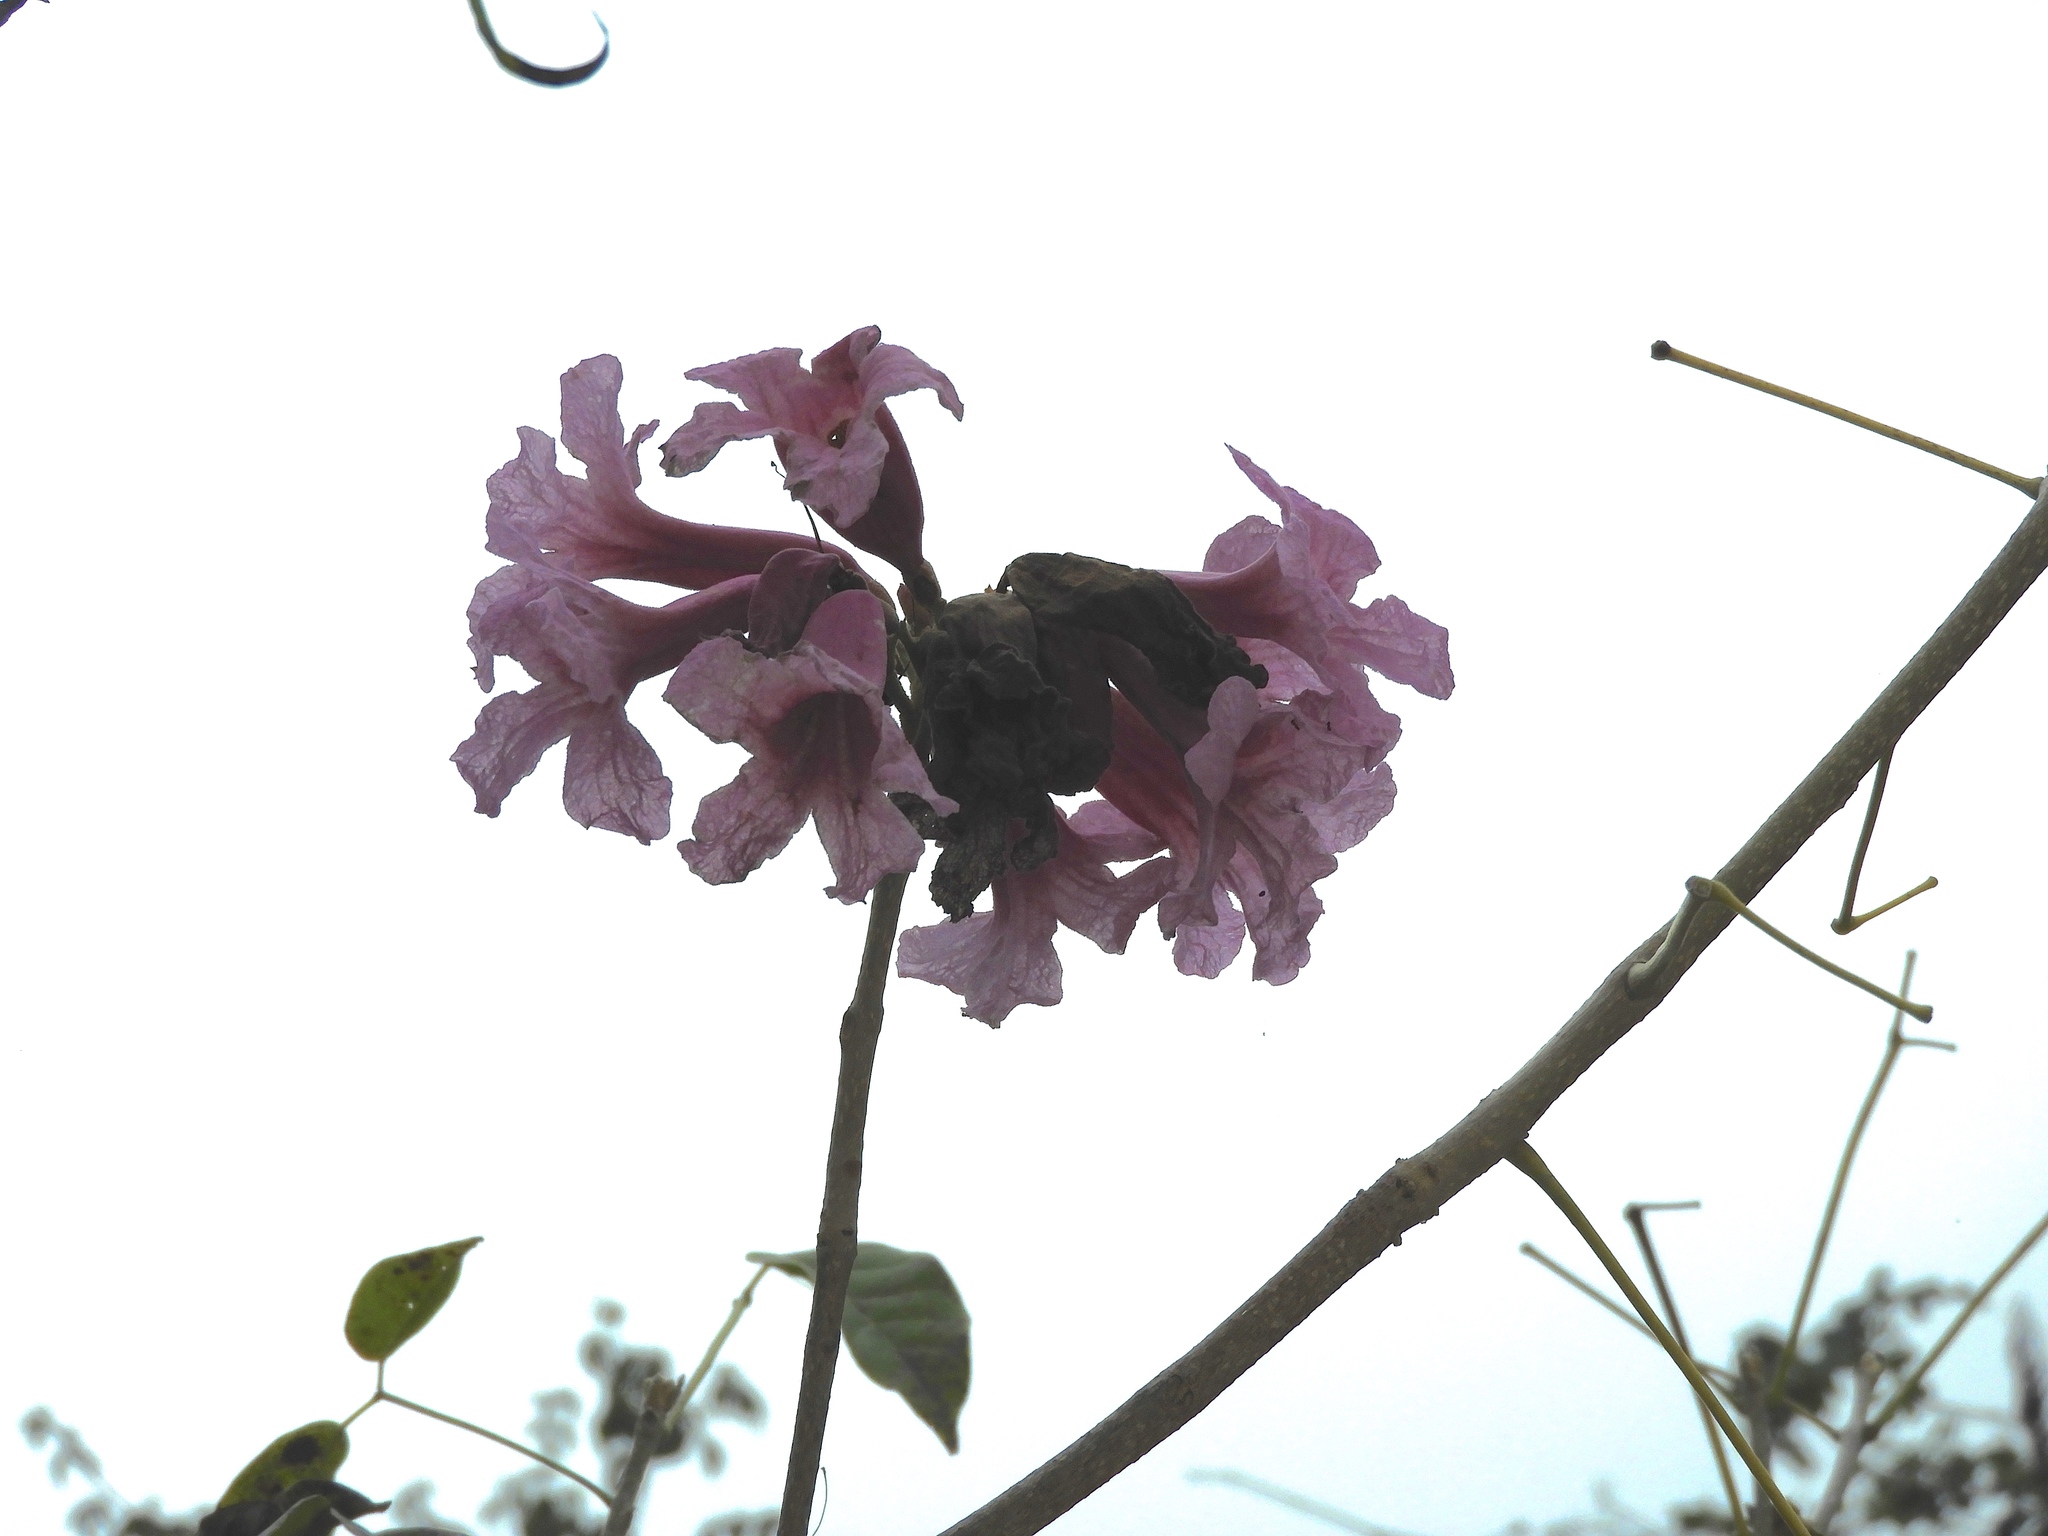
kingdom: Plantae
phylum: Tracheophyta
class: Magnoliopsida
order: Lamiales
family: Bignoniaceae
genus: Handroanthus
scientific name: Handroanthus impetiginosum
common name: Pink trumpet tree
